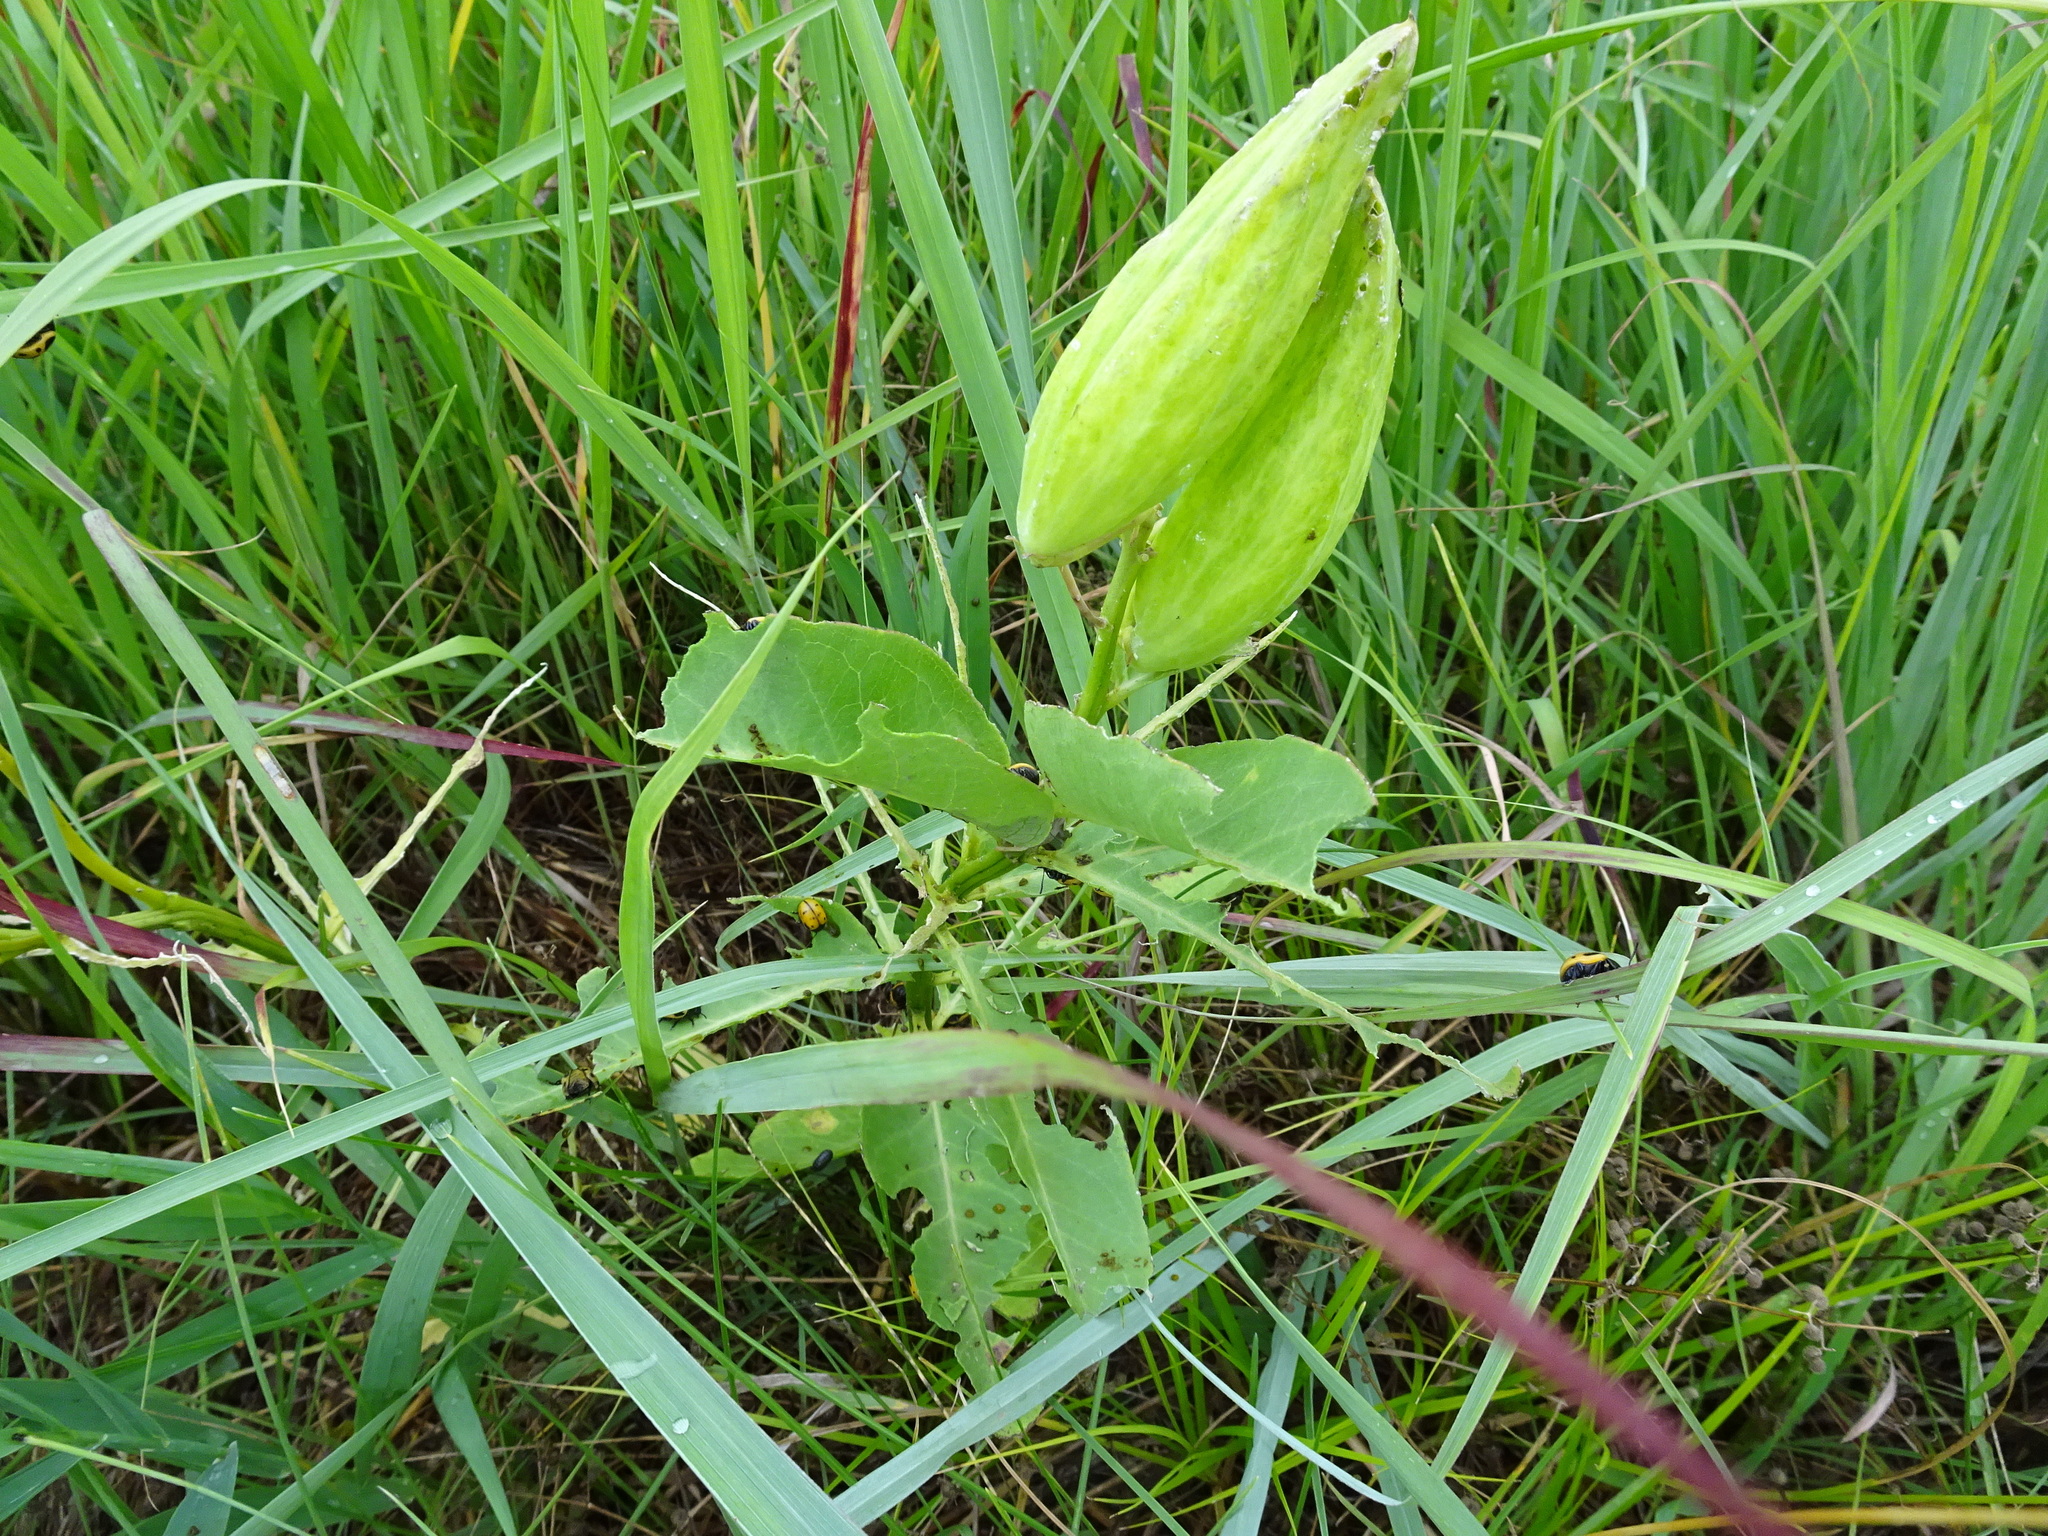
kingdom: Plantae
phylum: Tracheophyta
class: Magnoliopsida
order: Gentianales
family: Apocynaceae
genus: Asclepias
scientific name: Asclepias viridis
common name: Antelope-horns
